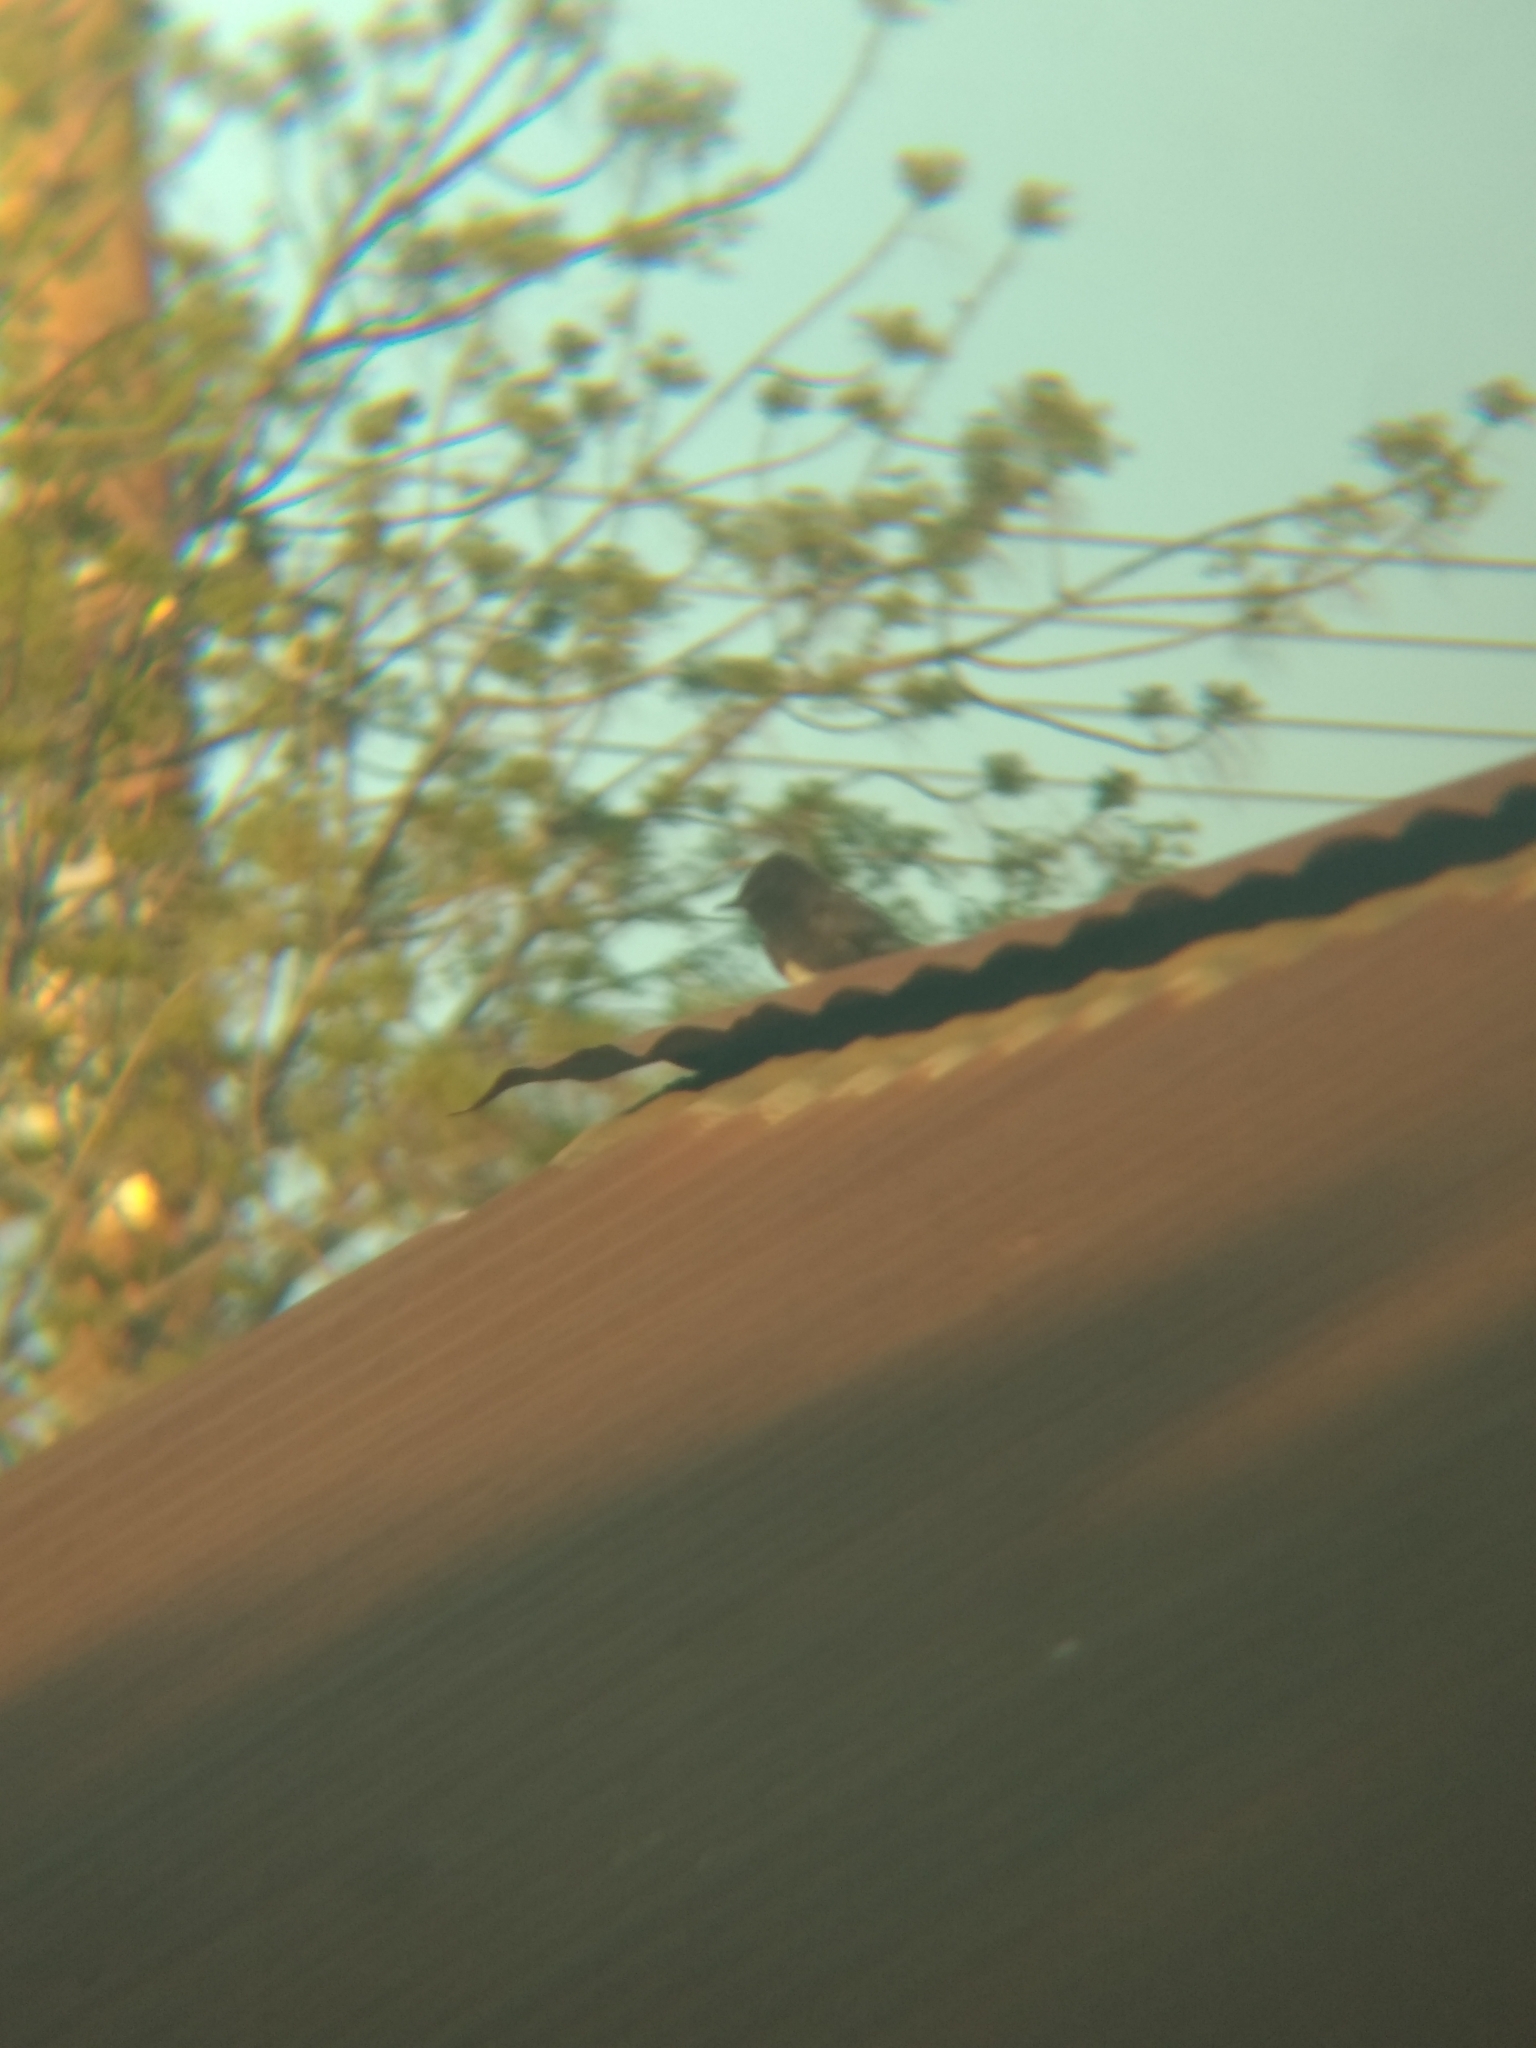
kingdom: Animalia
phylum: Chordata
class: Aves
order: Passeriformes
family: Tyrannidae
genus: Sayornis
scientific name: Sayornis nigricans
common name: Black phoebe
